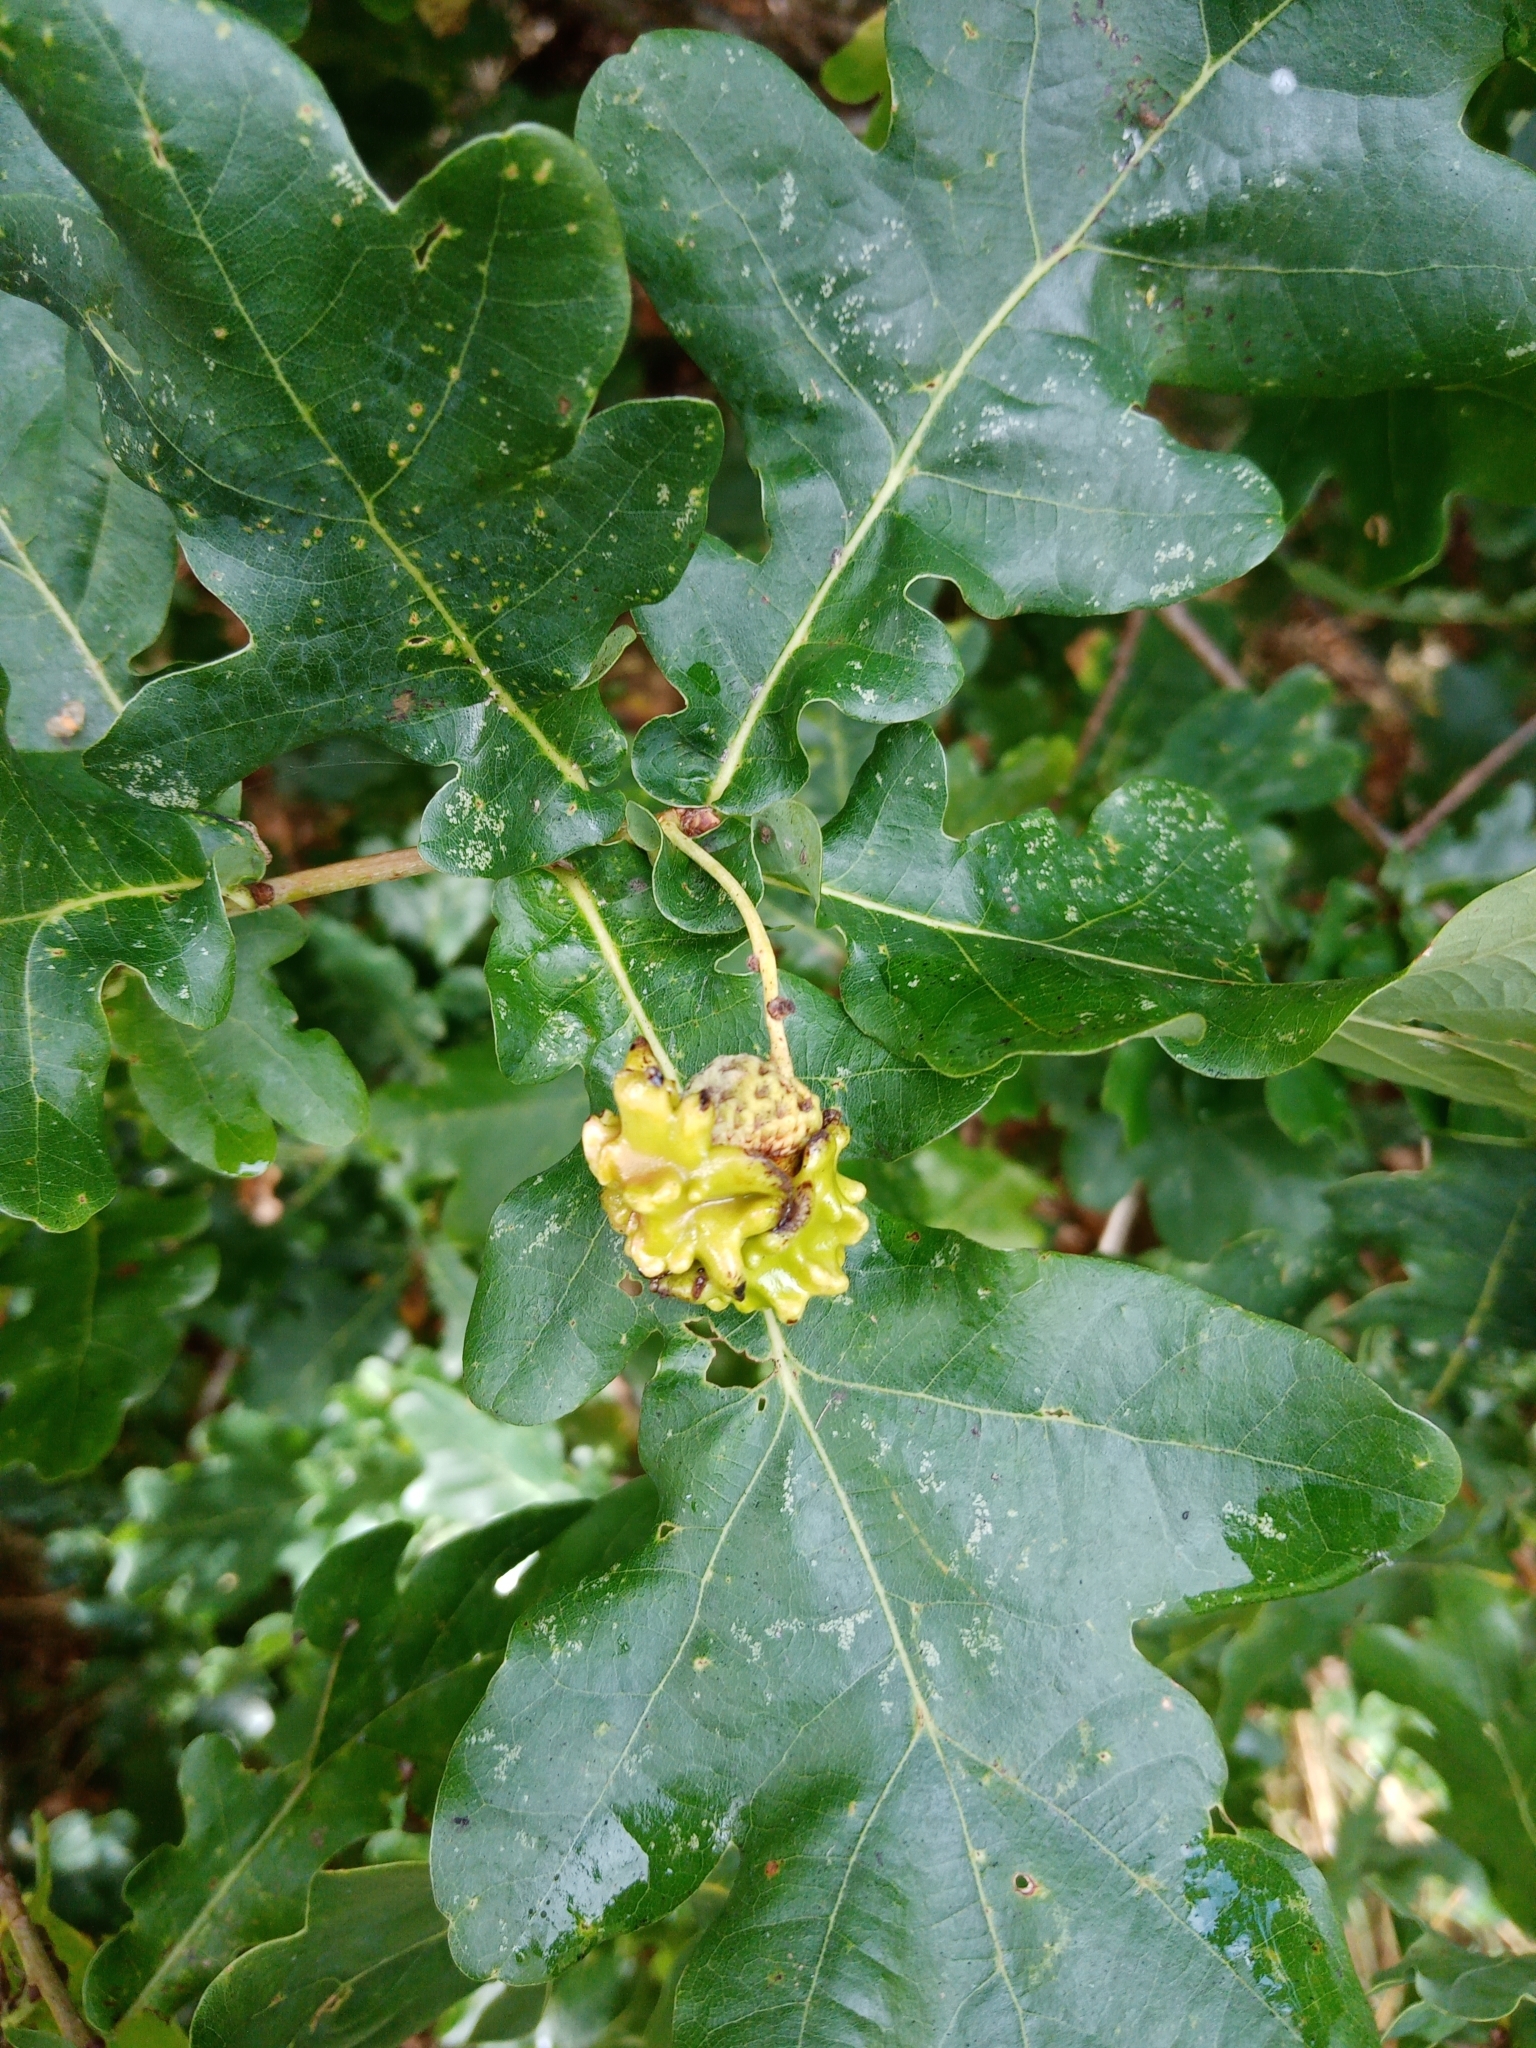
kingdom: Animalia
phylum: Arthropoda
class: Insecta
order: Hymenoptera
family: Cynipidae
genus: Andricus
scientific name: Andricus quercuscalicis
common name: Knopper gall
